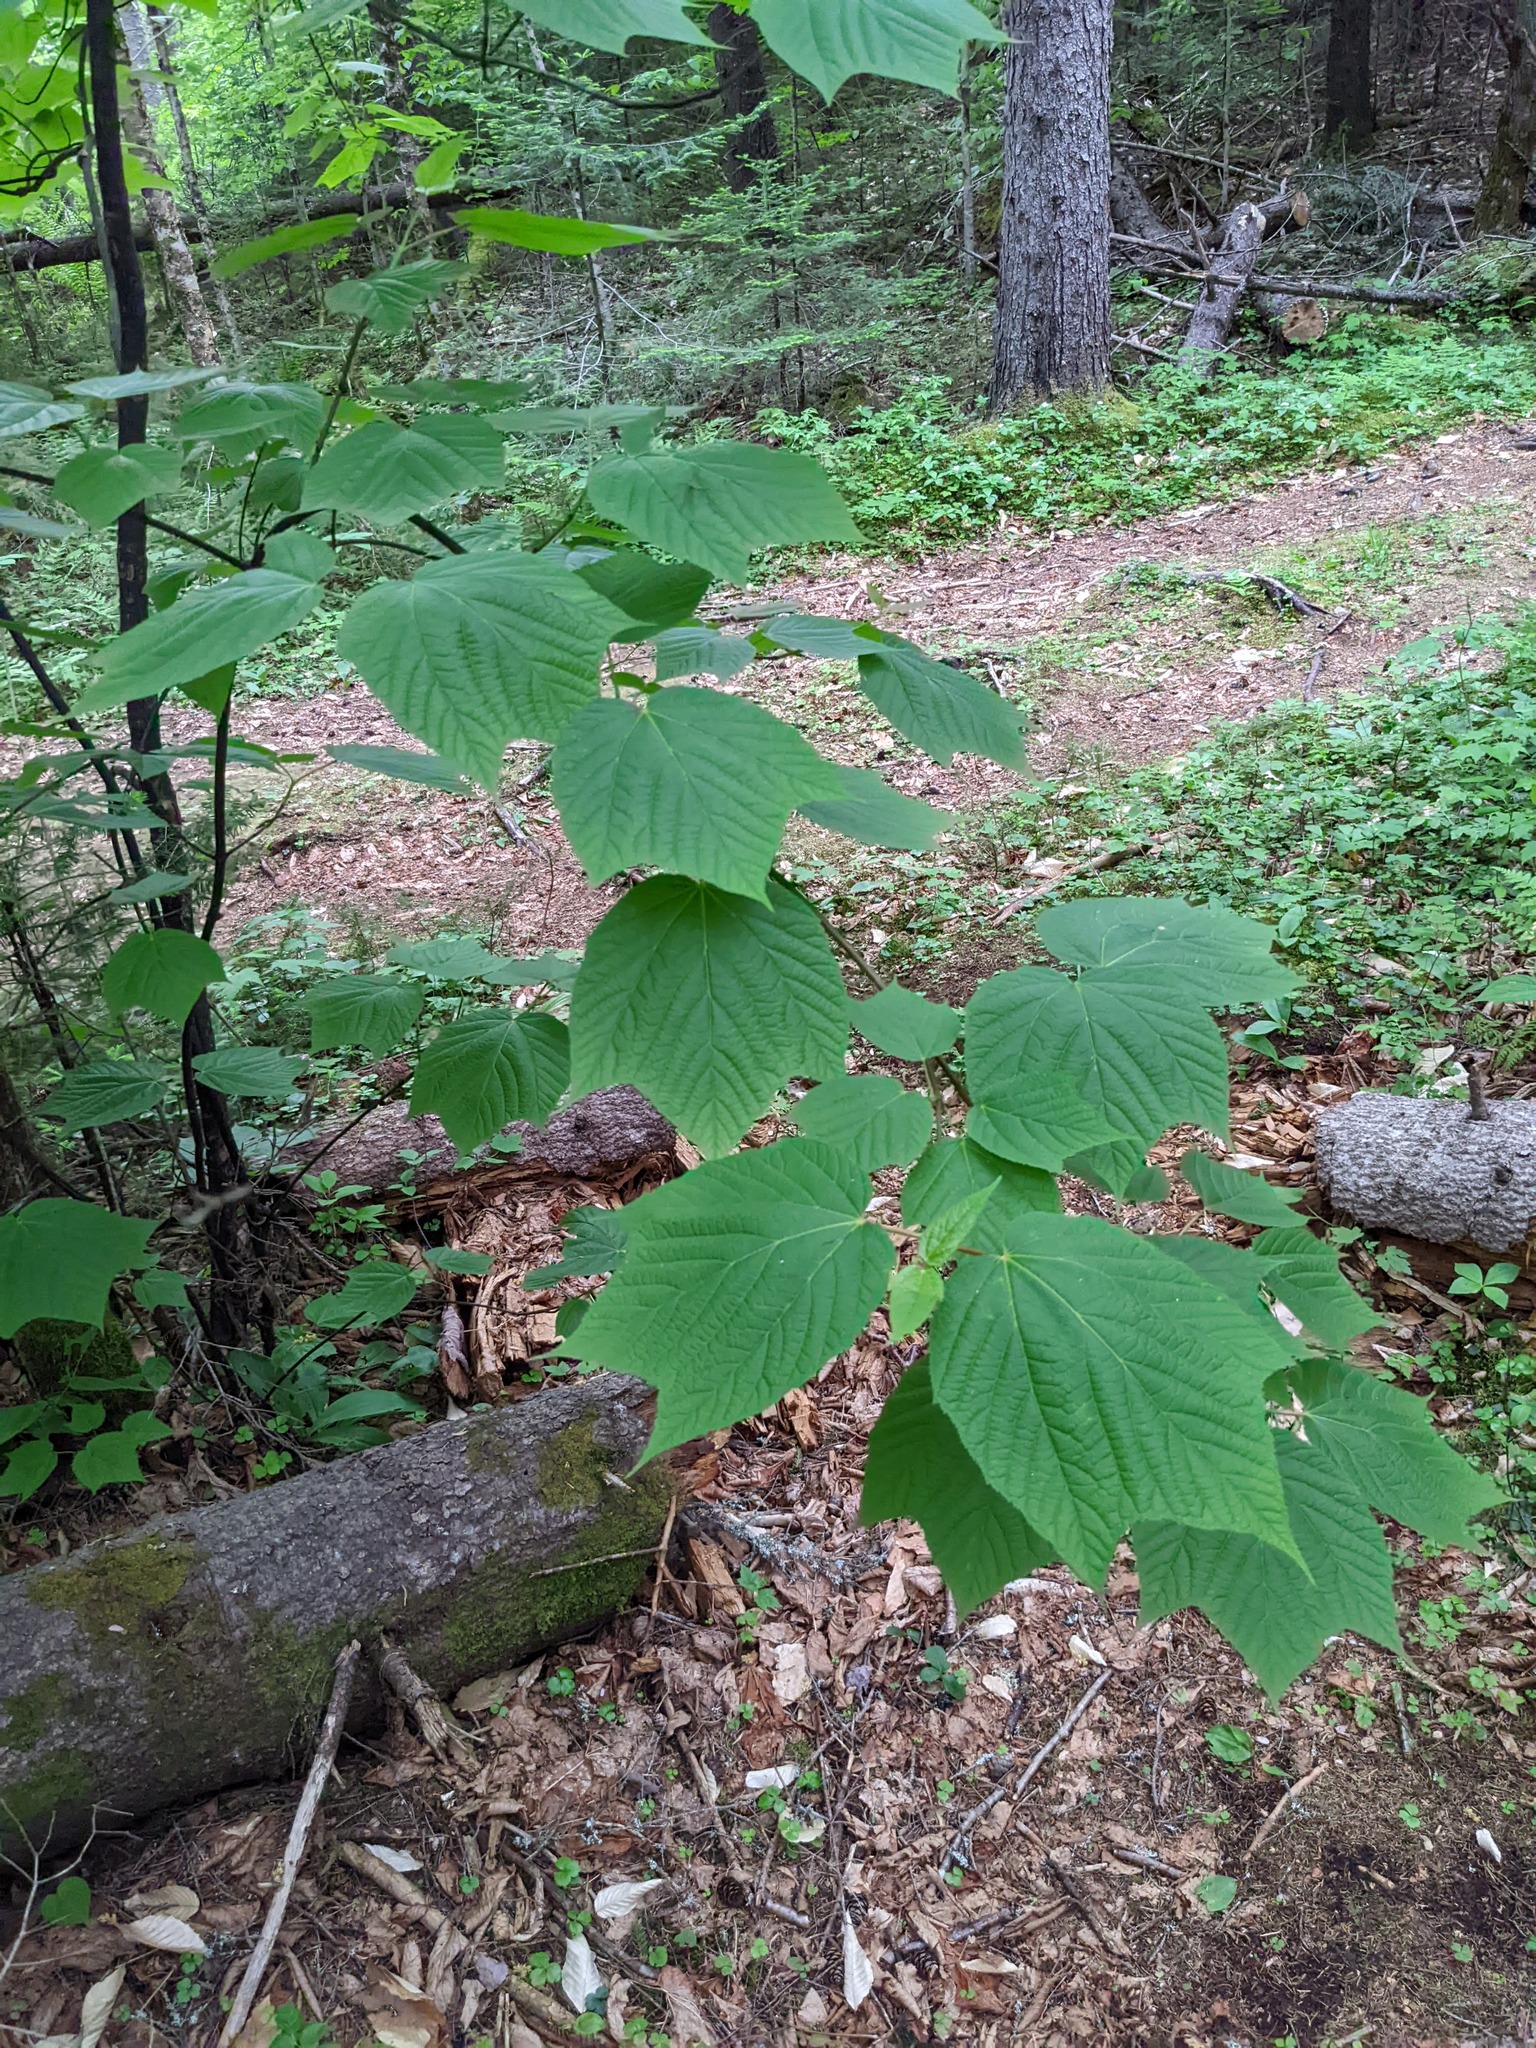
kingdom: Plantae
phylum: Tracheophyta
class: Magnoliopsida
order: Sapindales
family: Sapindaceae
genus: Acer
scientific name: Acer pensylvanicum
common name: Moosewood
